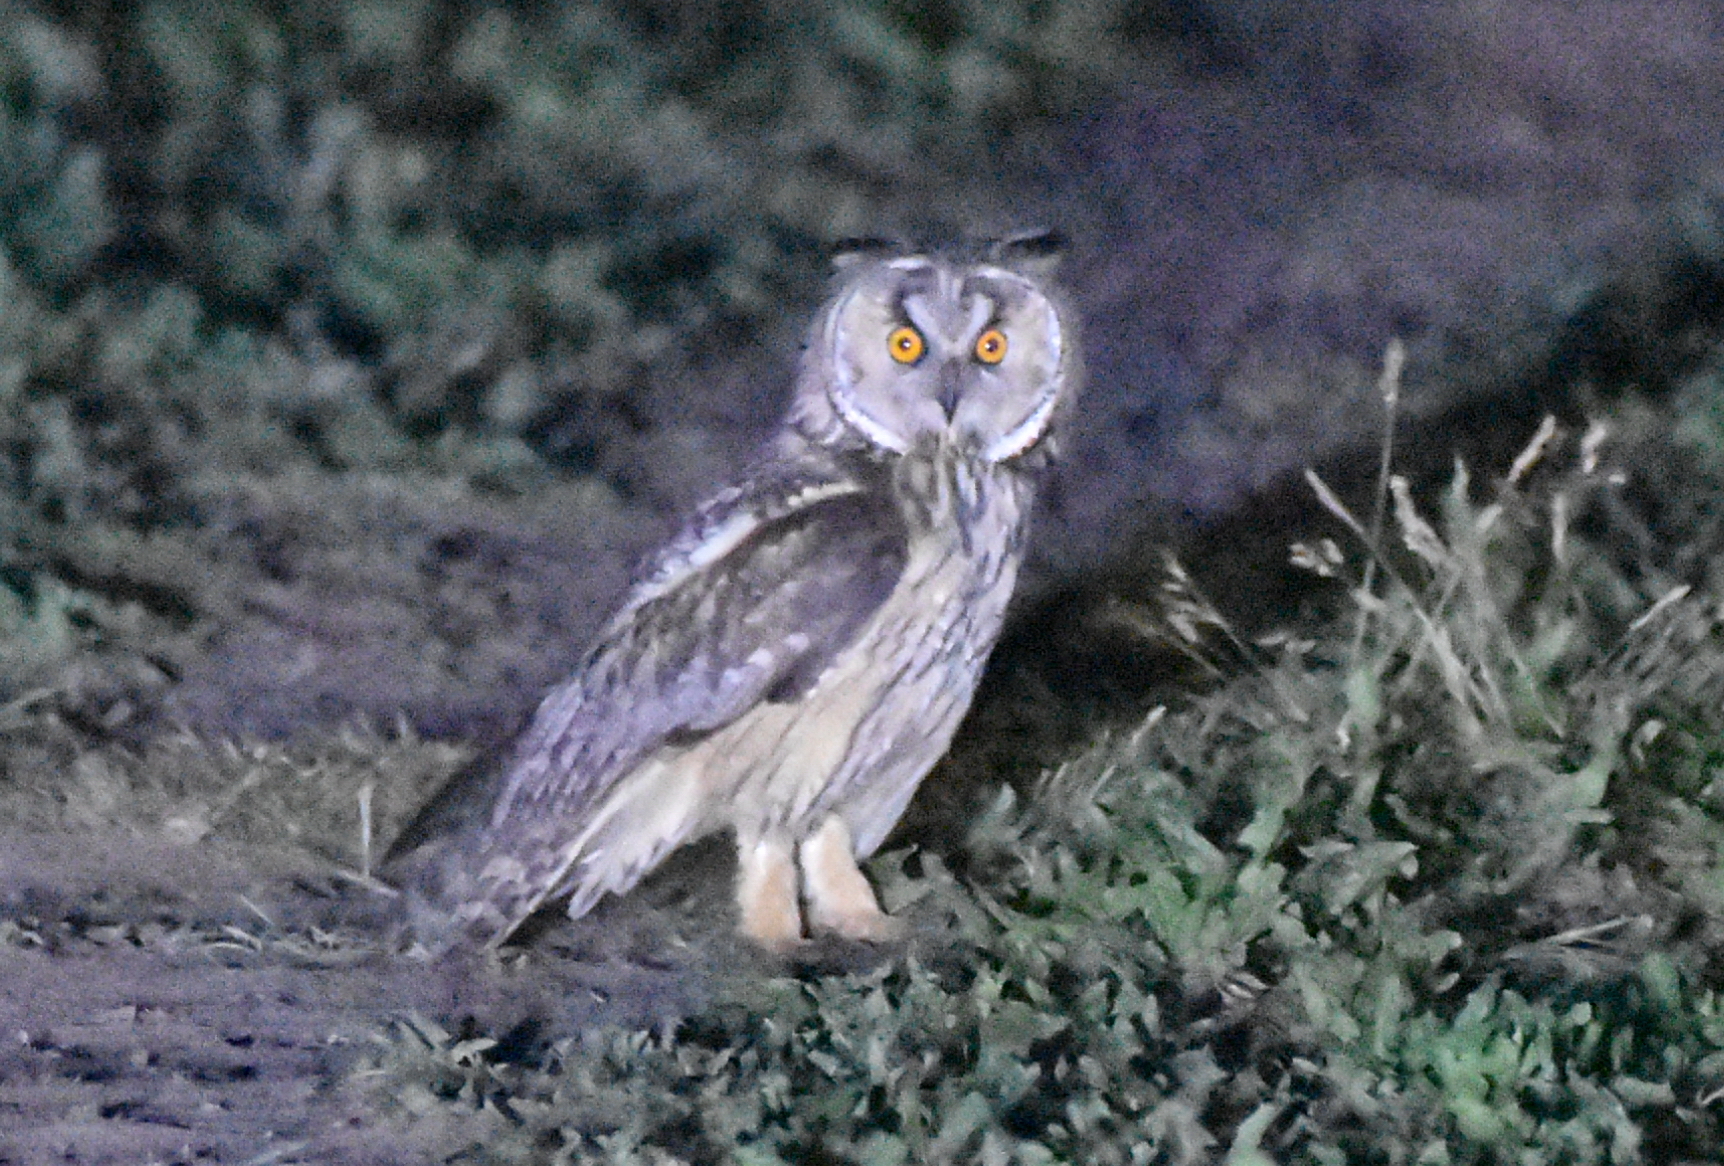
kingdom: Animalia
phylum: Chordata
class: Aves
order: Strigiformes
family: Strigidae
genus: Asio
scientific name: Asio otus
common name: Long-eared owl
